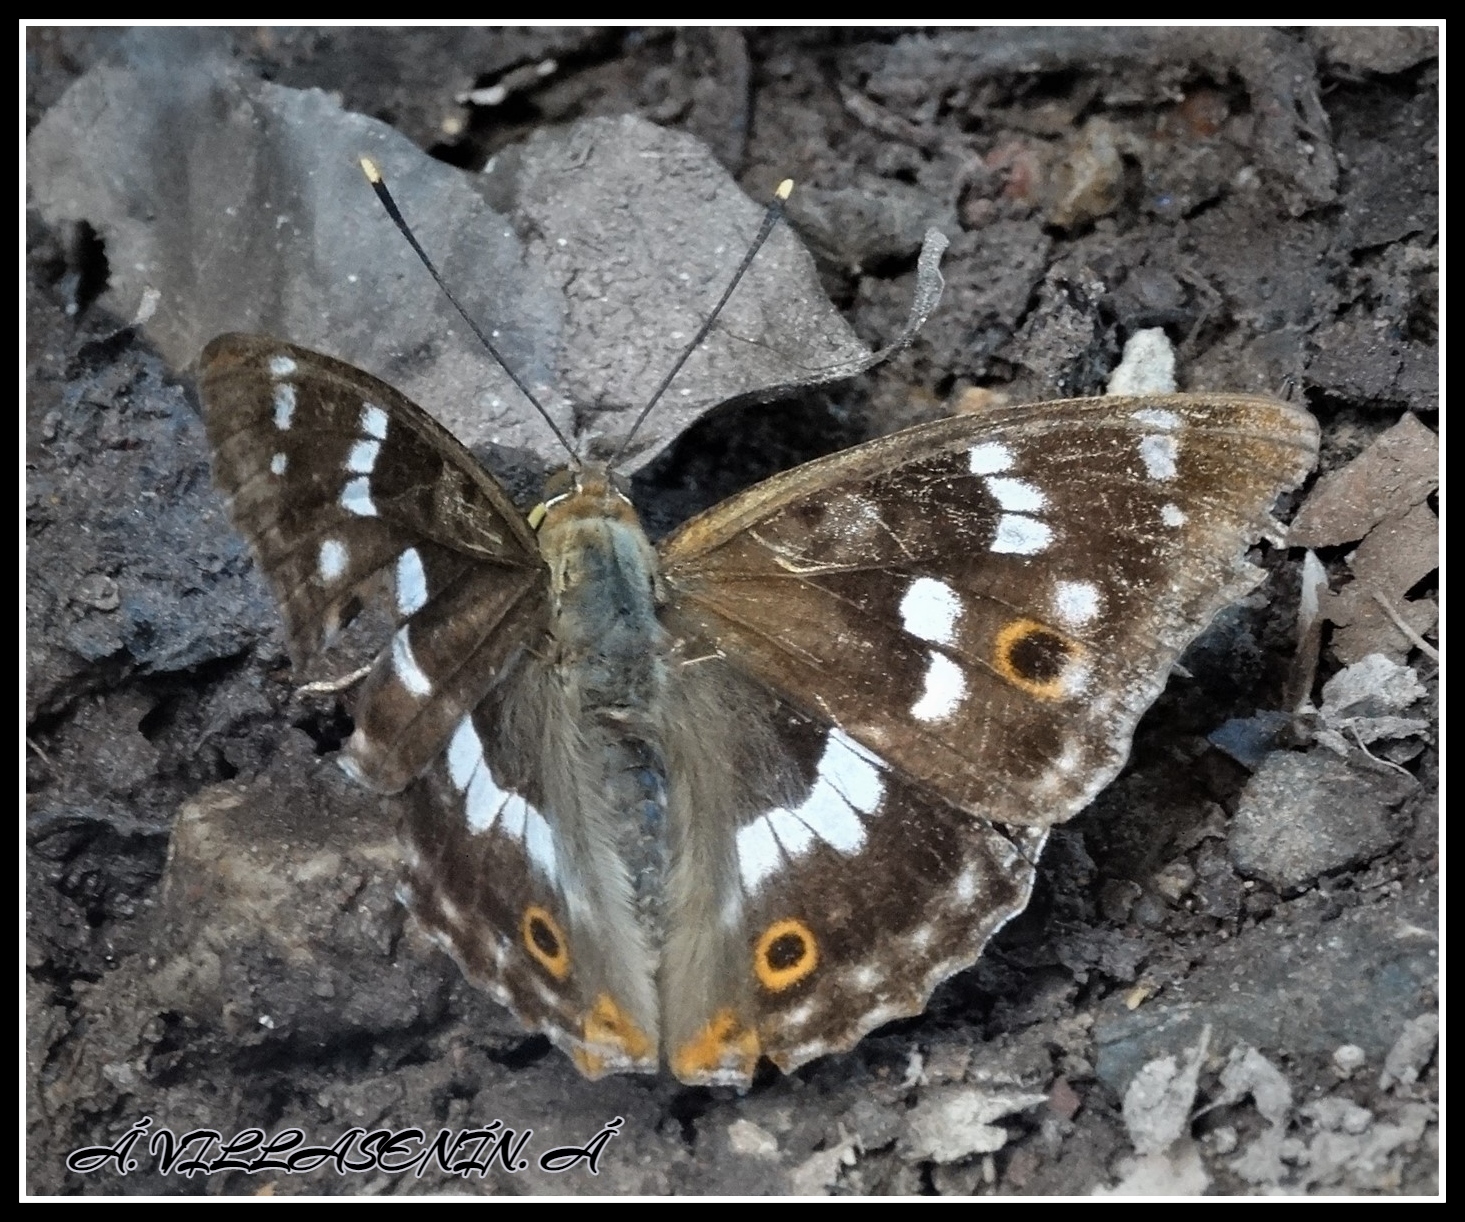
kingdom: Animalia
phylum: Arthropoda
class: Insecta
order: Lepidoptera
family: Nymphalidae
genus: Apatura
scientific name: Apatura ilia
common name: Lesser purple emperor
